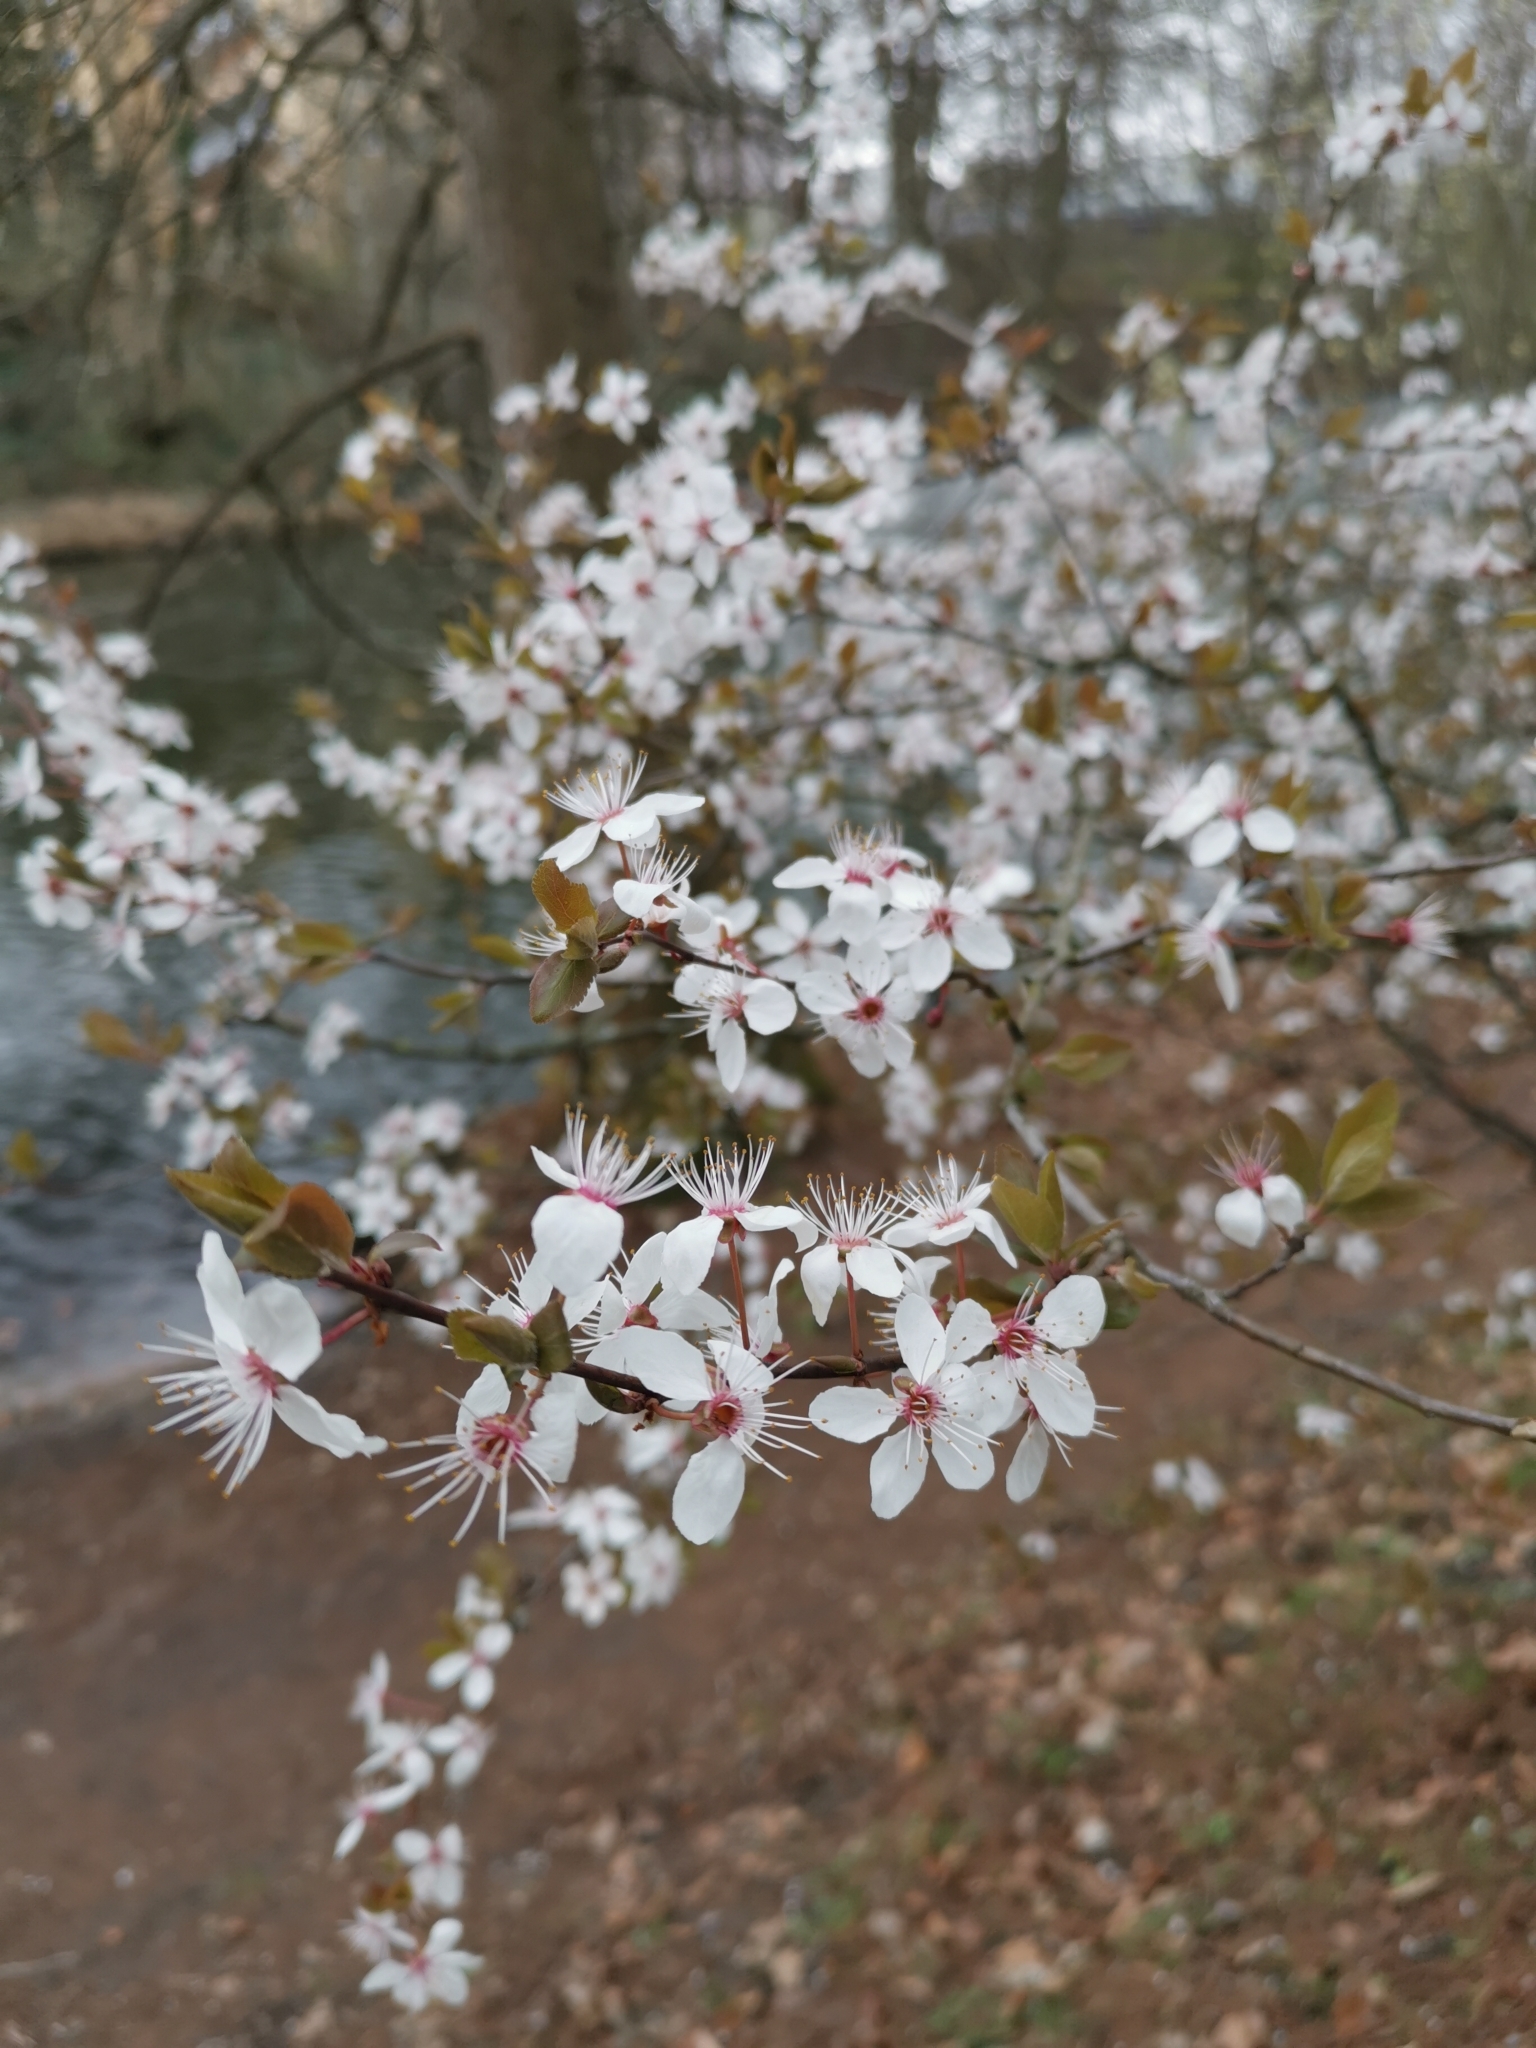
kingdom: Plantae
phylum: Tracheophyta
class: Magnoliopsida
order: Rosales
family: Rosaceae
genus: Prunus
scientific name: Prunus cerasifera
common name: Cherry plum
